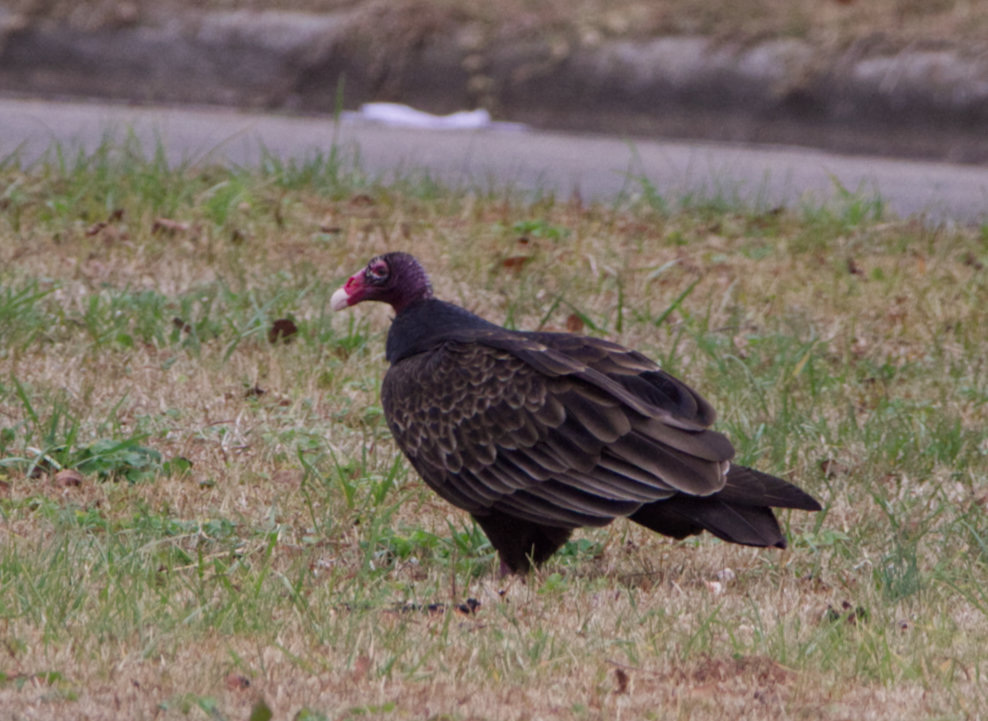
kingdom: Animalia
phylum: Chordata
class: Aves
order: Accipitriformes
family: Cathartidae
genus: Cathartes
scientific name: Cathartes aura
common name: Turkey vulture
